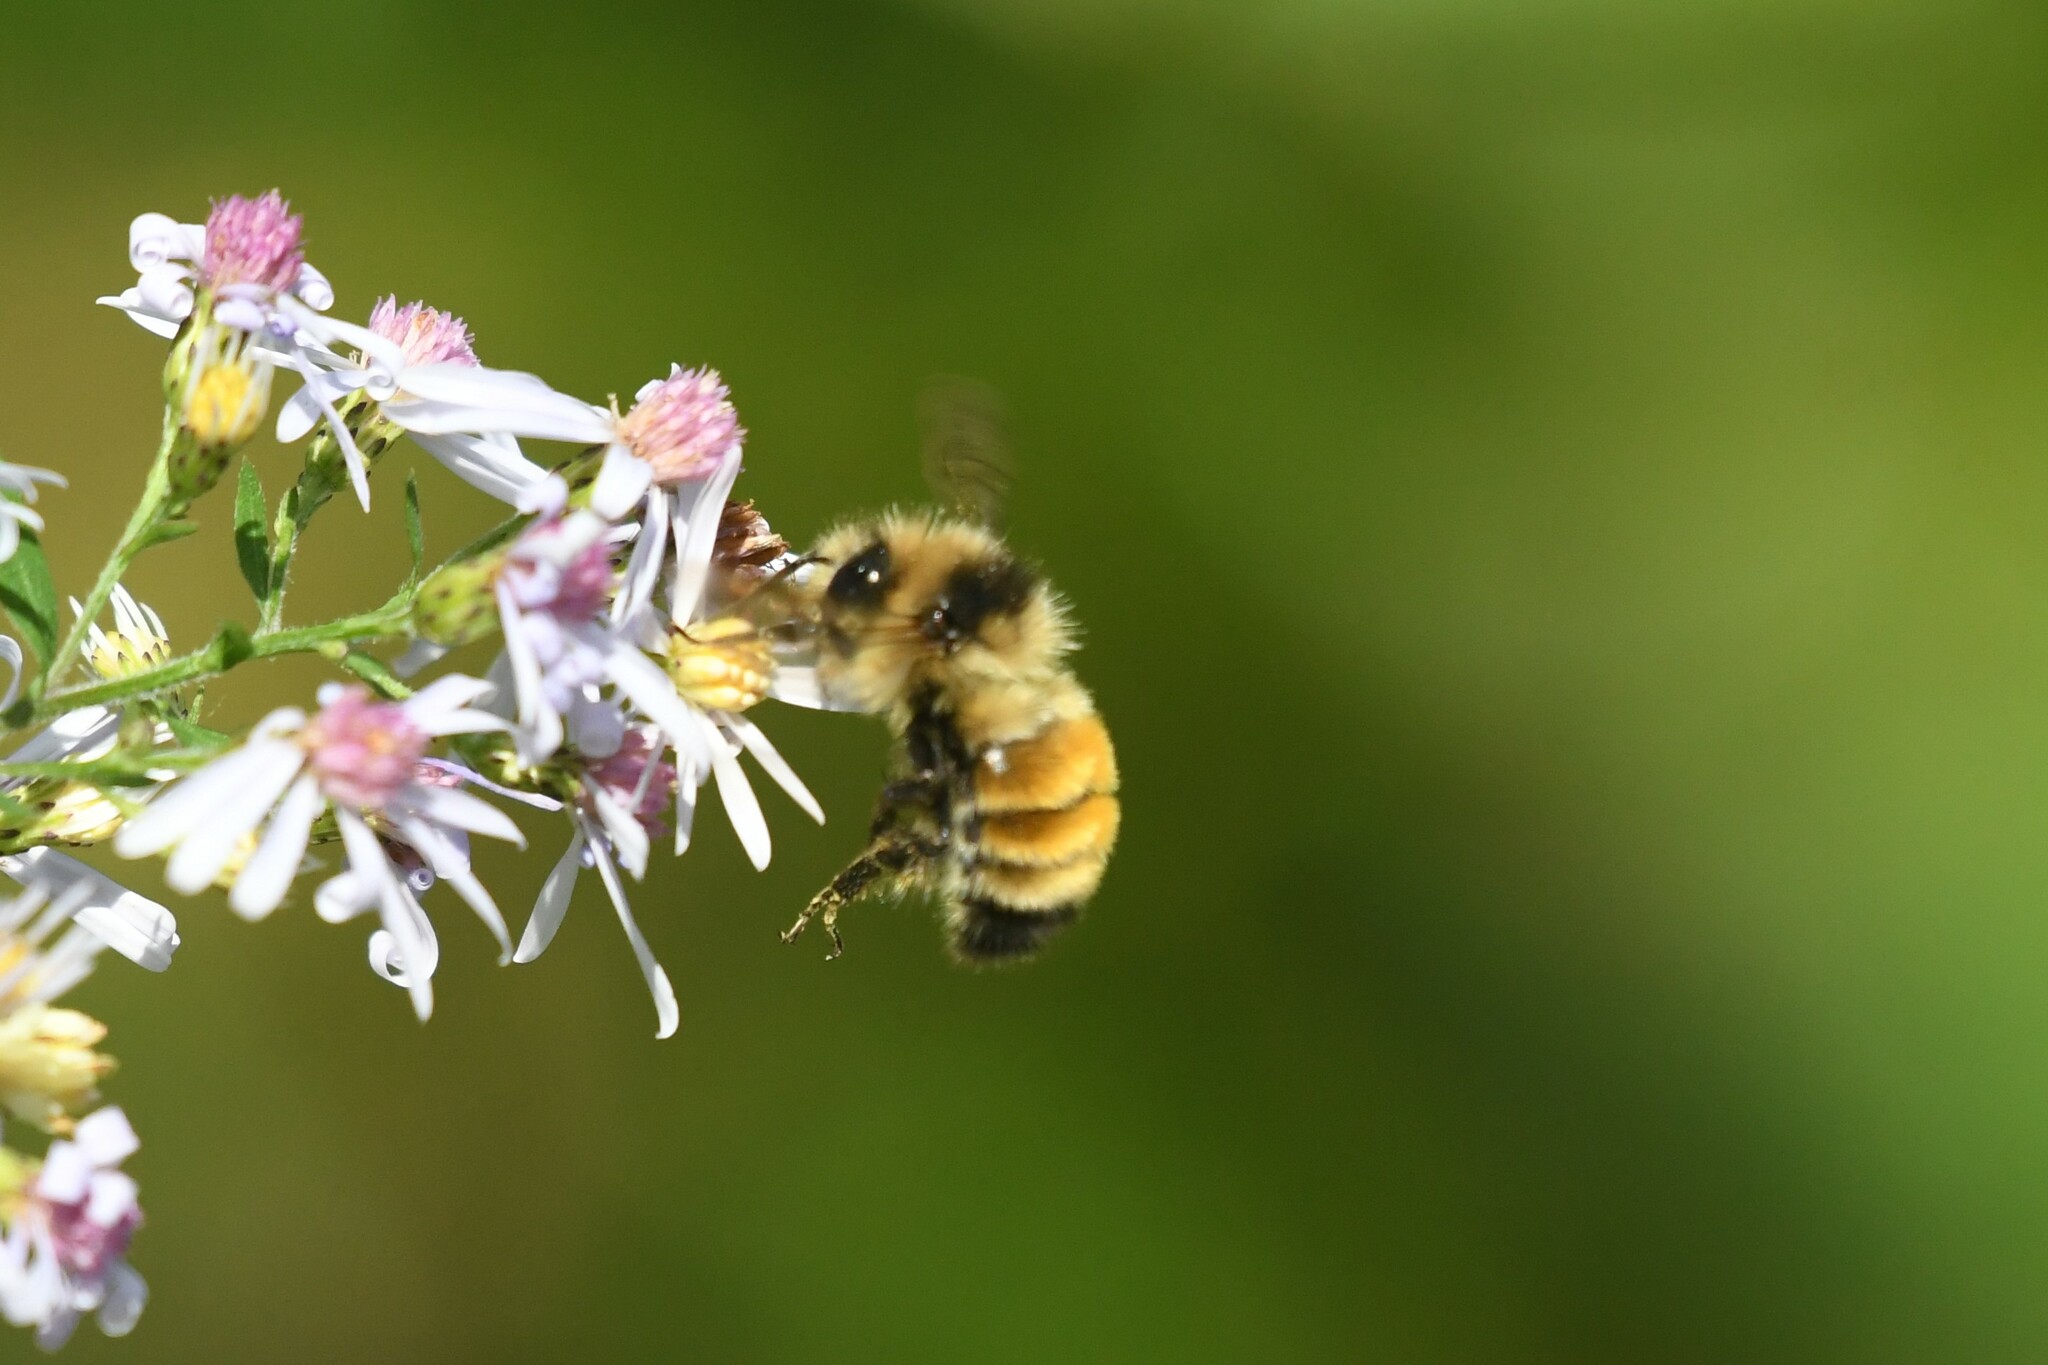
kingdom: Animalia
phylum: Arthropoda
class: Insecta
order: Hymenoptera
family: Apidae
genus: Bombus
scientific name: Bombus ternarius
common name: Tri-colored bumble bee
